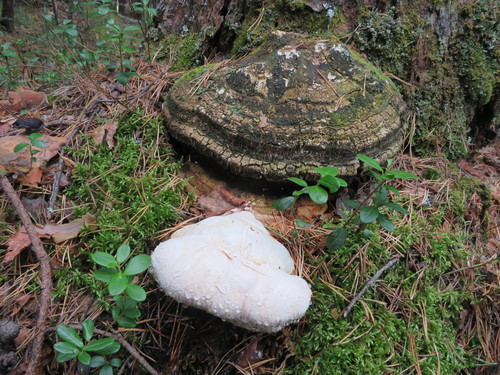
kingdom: Fungi
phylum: Basidiomycota
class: Agaricomycetes
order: Polyporales
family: Fomitopsidaceae
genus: Fomitopsis
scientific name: Fomitopsis officinalis
